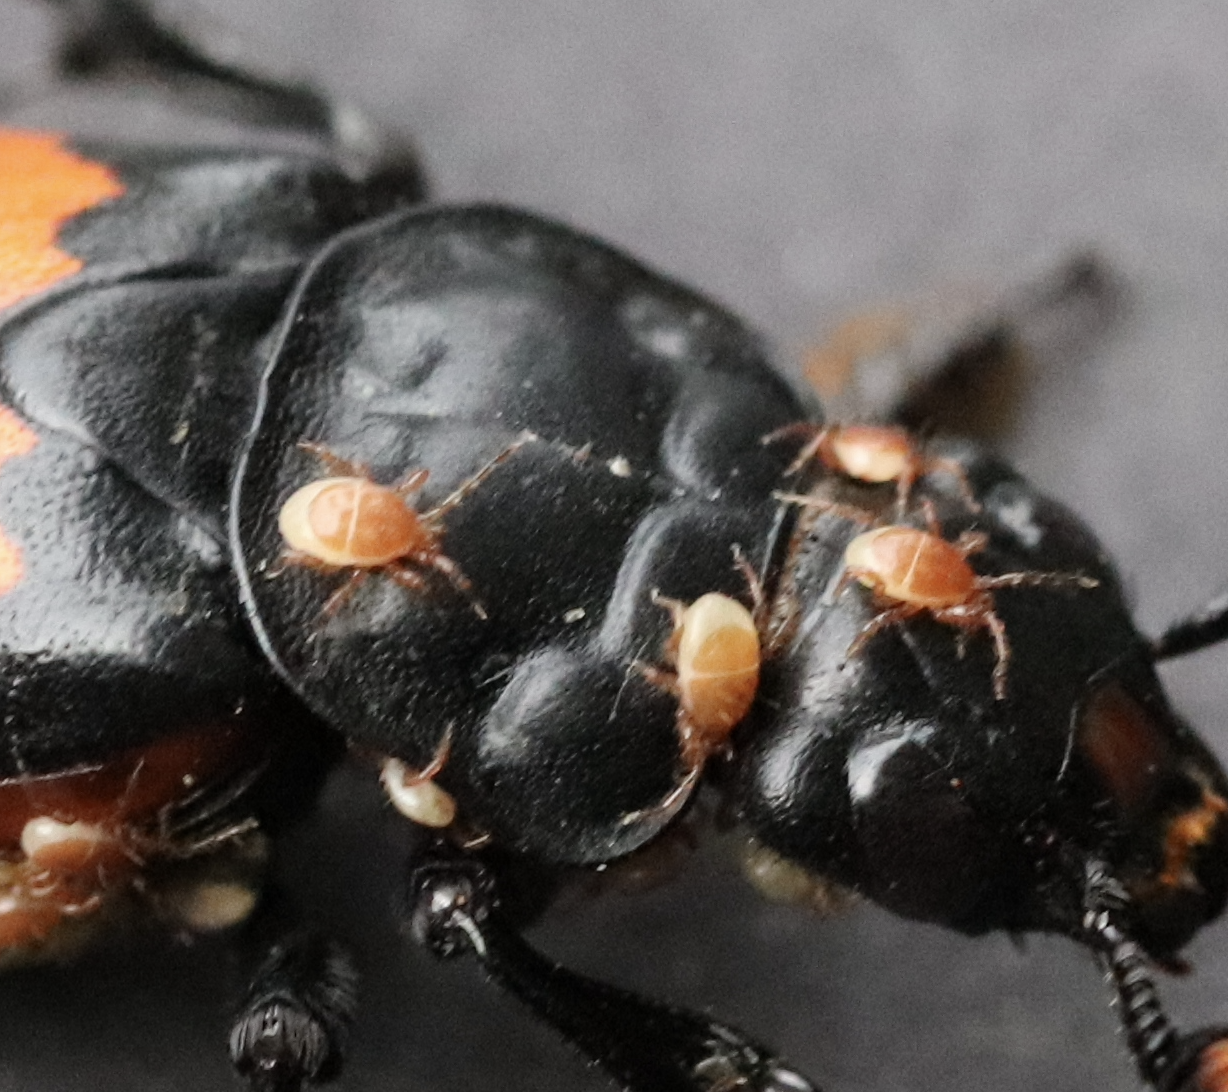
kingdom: Animalia
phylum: Arthropoda
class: Arachnida
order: Mesostigmata
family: Parasitidae
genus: Poecilochirus
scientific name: Poecilochirus
